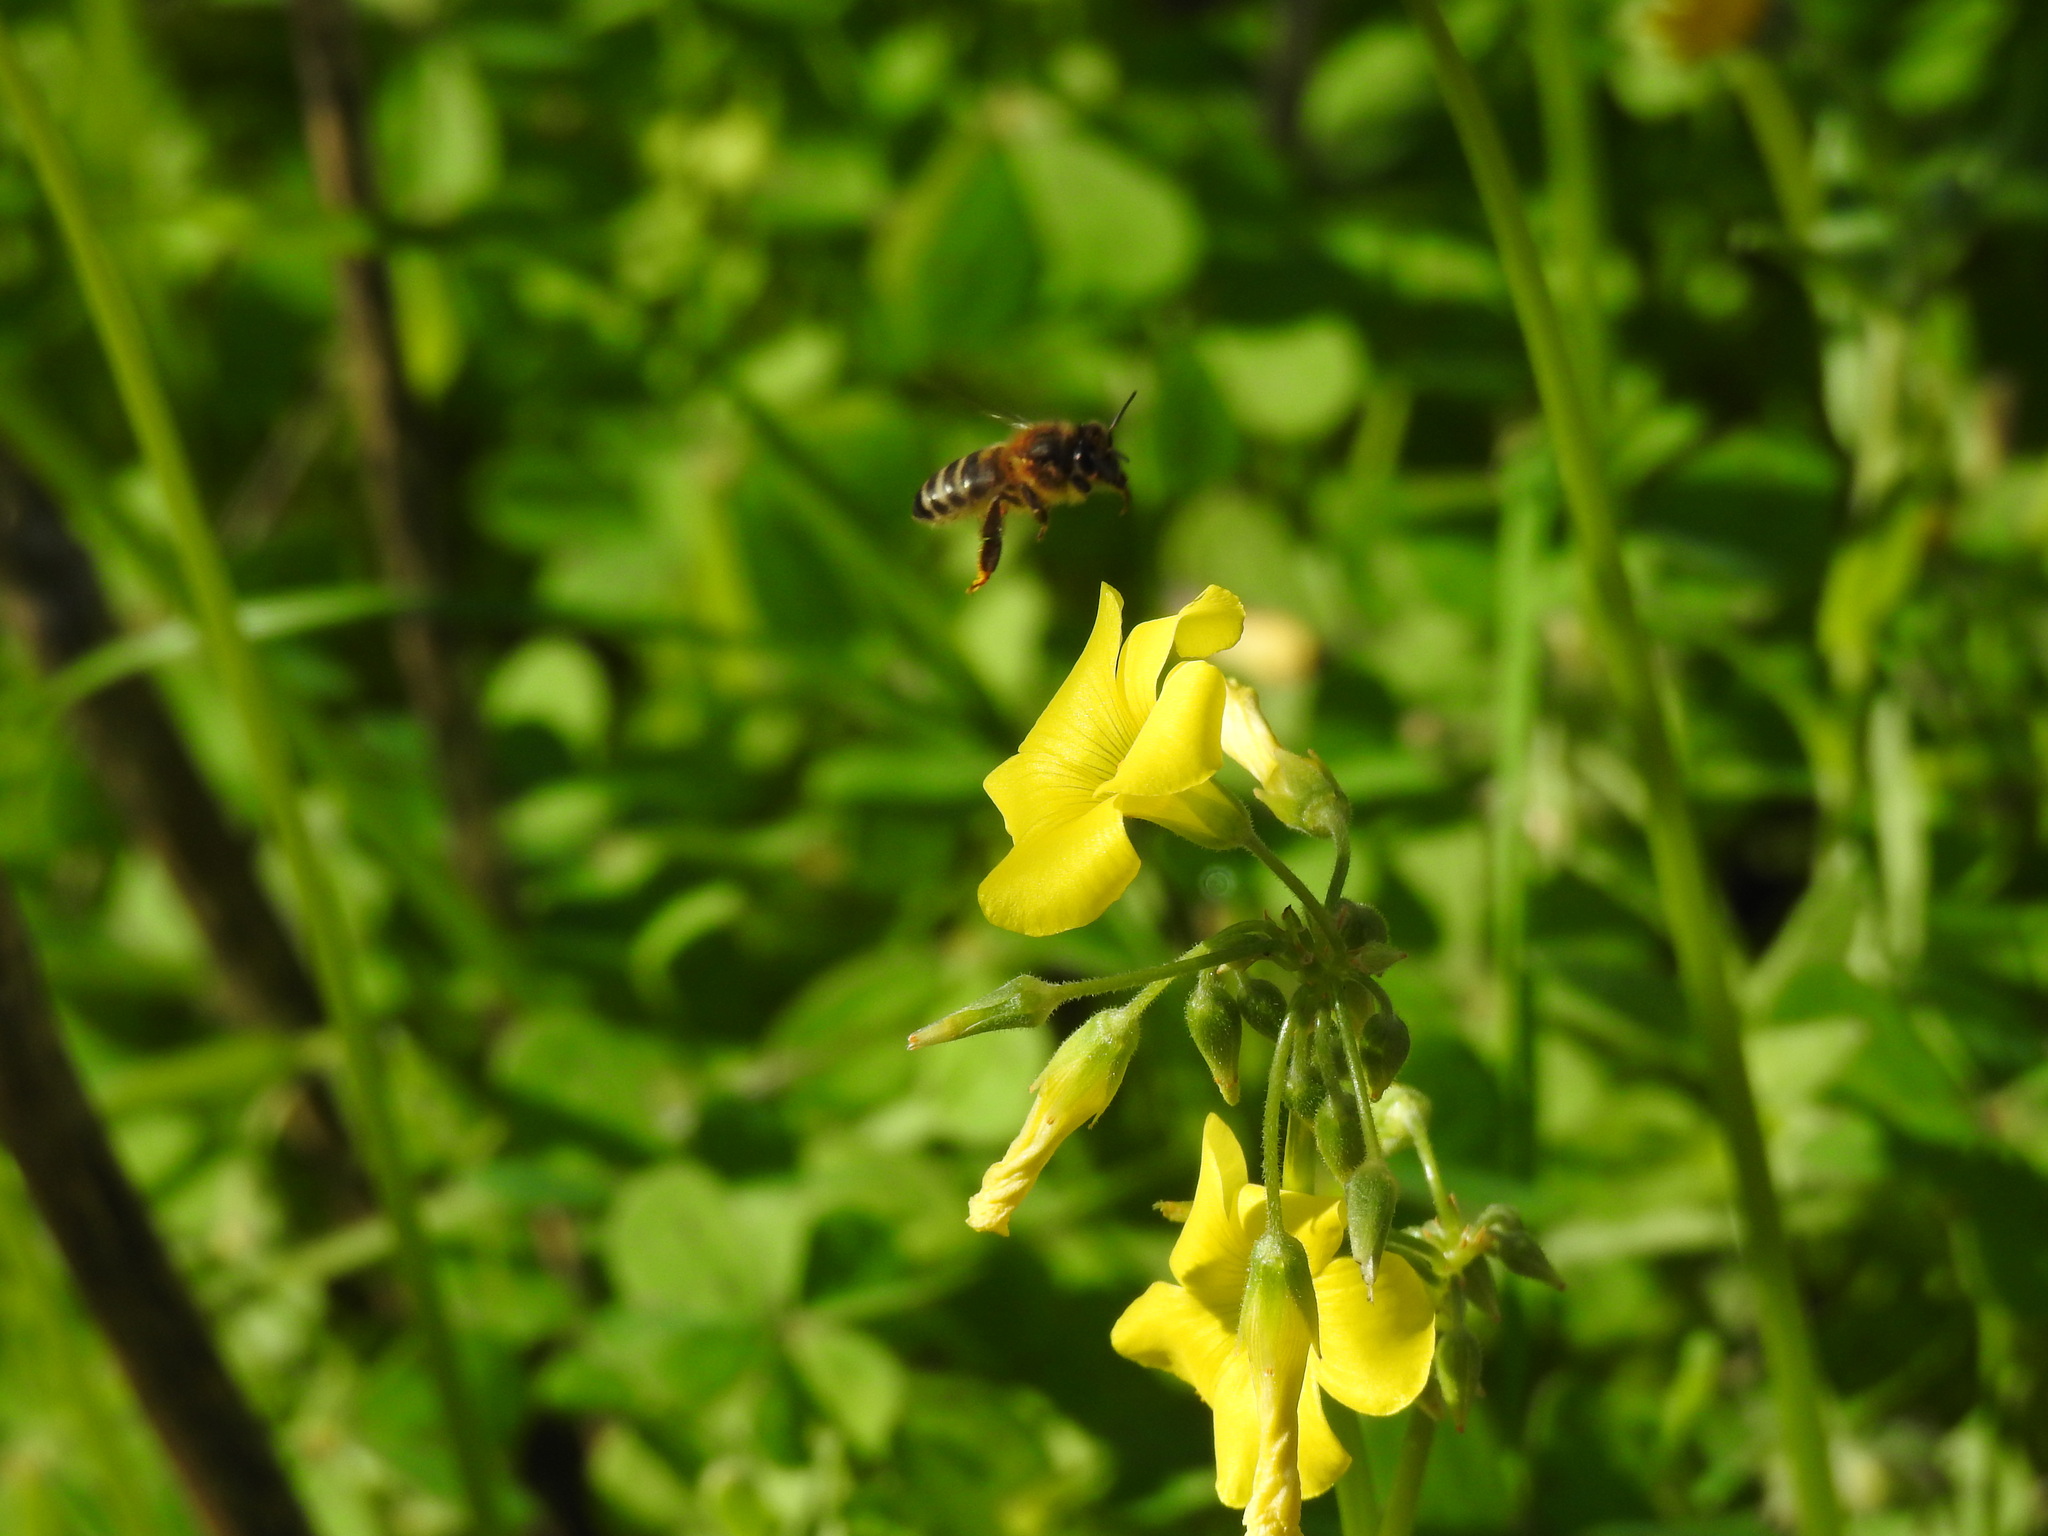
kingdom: Animalia
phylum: Arthropoda
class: Insecta
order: Hymenoptera
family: Apidae
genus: Apis
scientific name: Apis mellifera
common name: Honey bee
